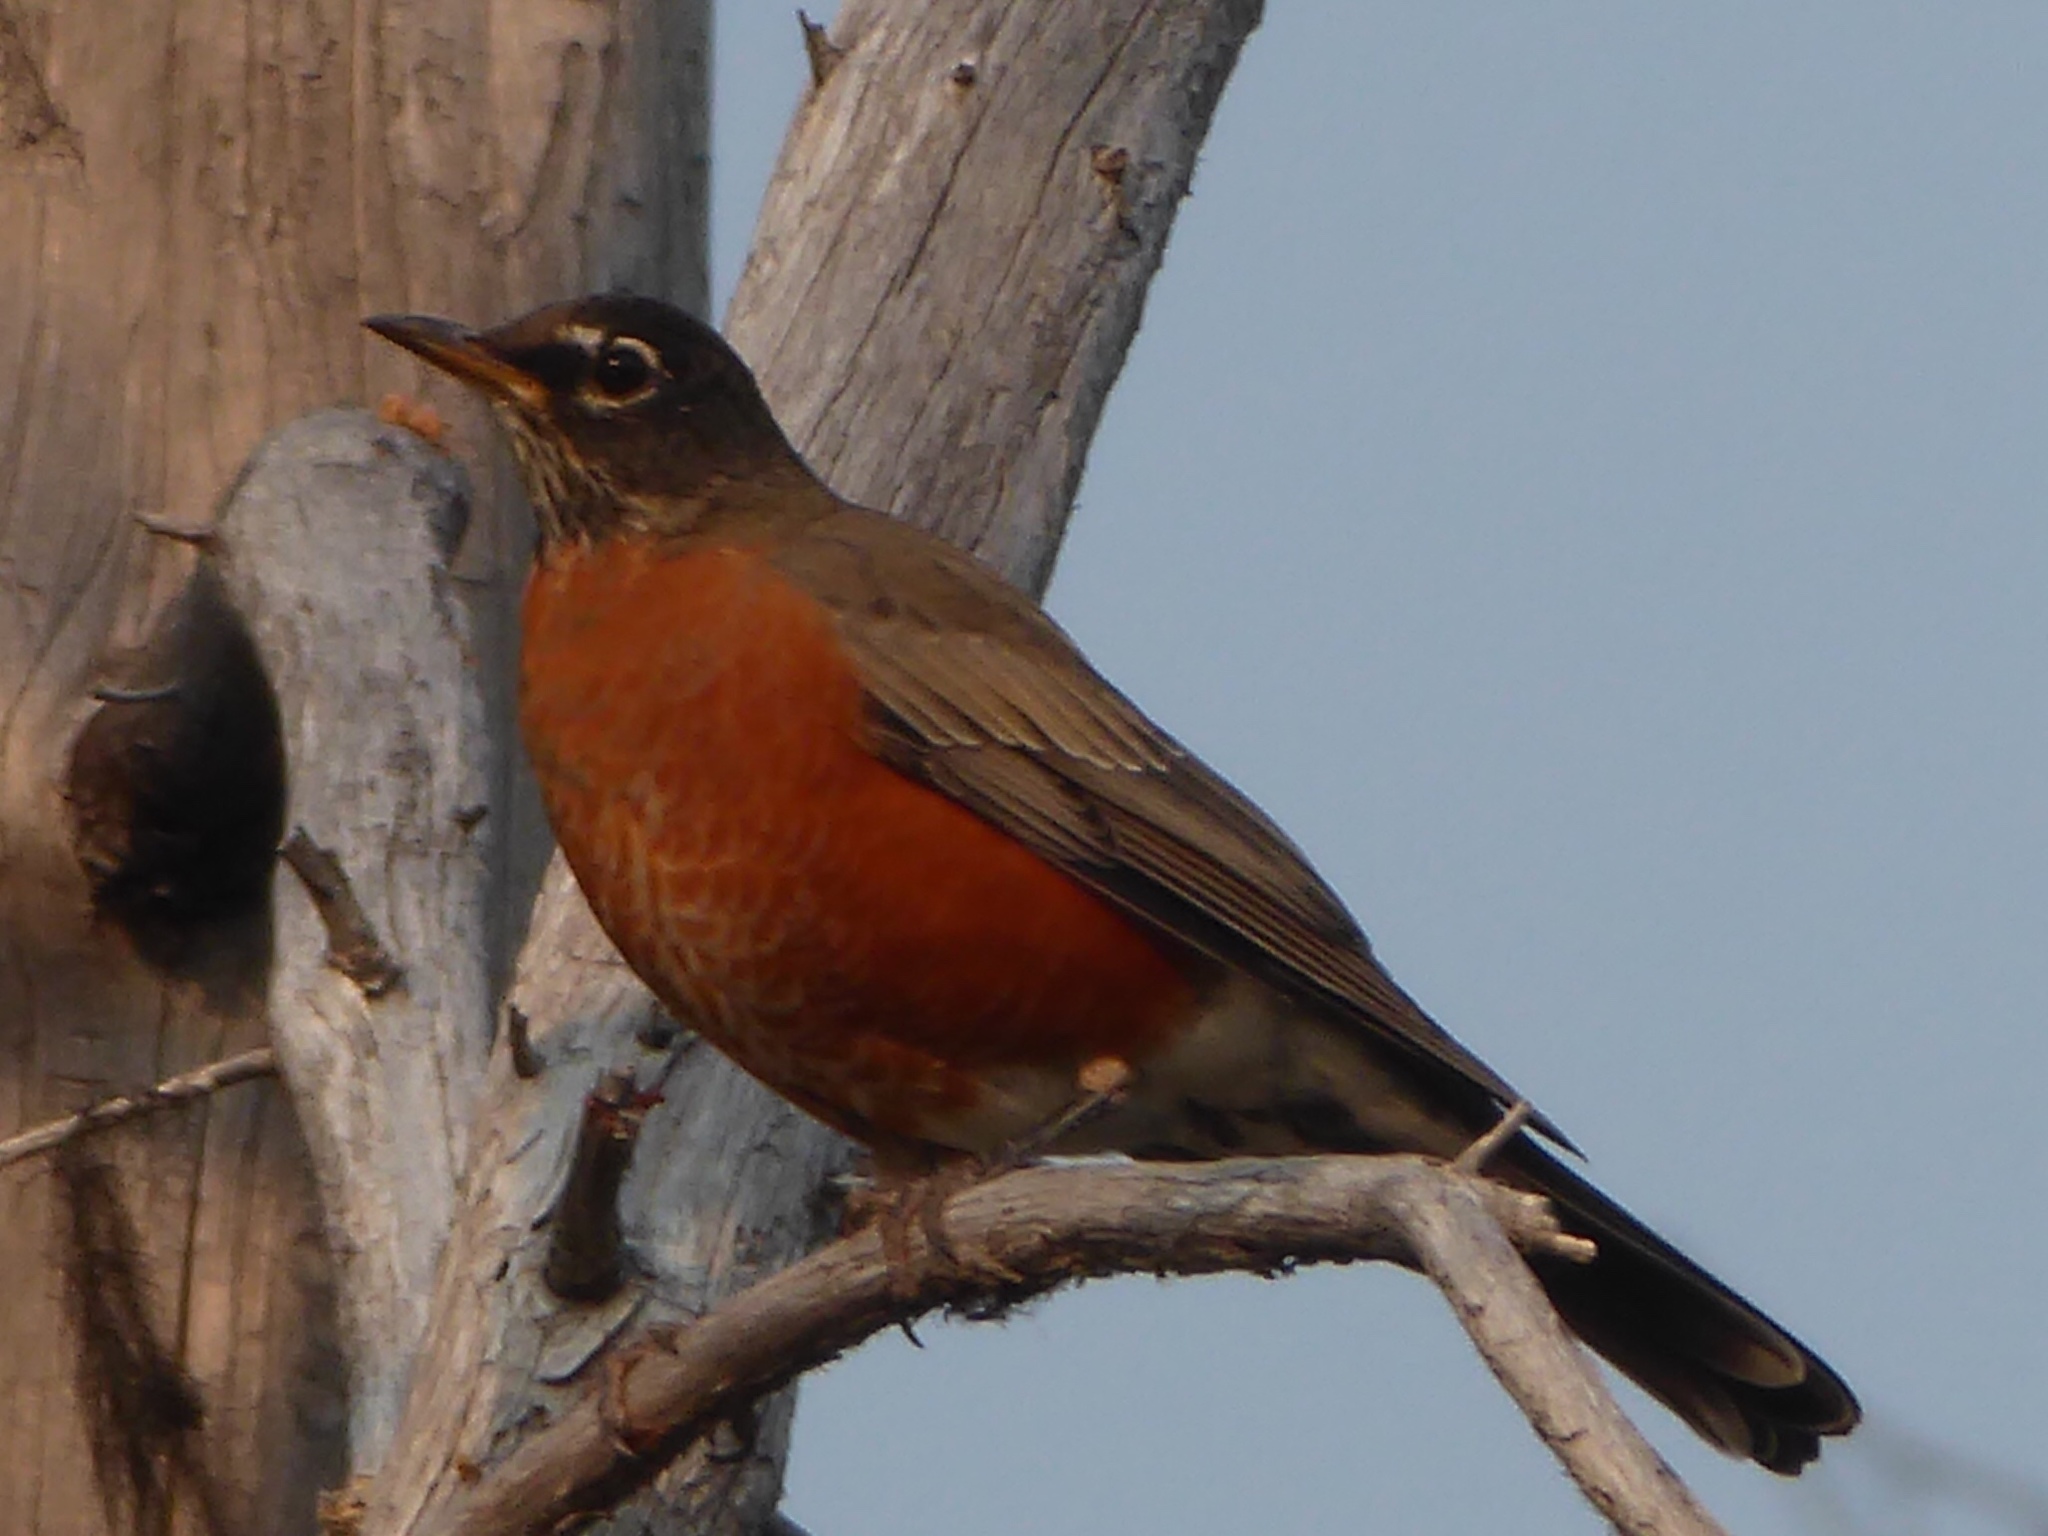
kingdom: Animalia
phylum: Chordata
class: Aves
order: Passeriformes
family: Turdidae
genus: Turdus
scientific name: Turdus migratorius
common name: American robin
